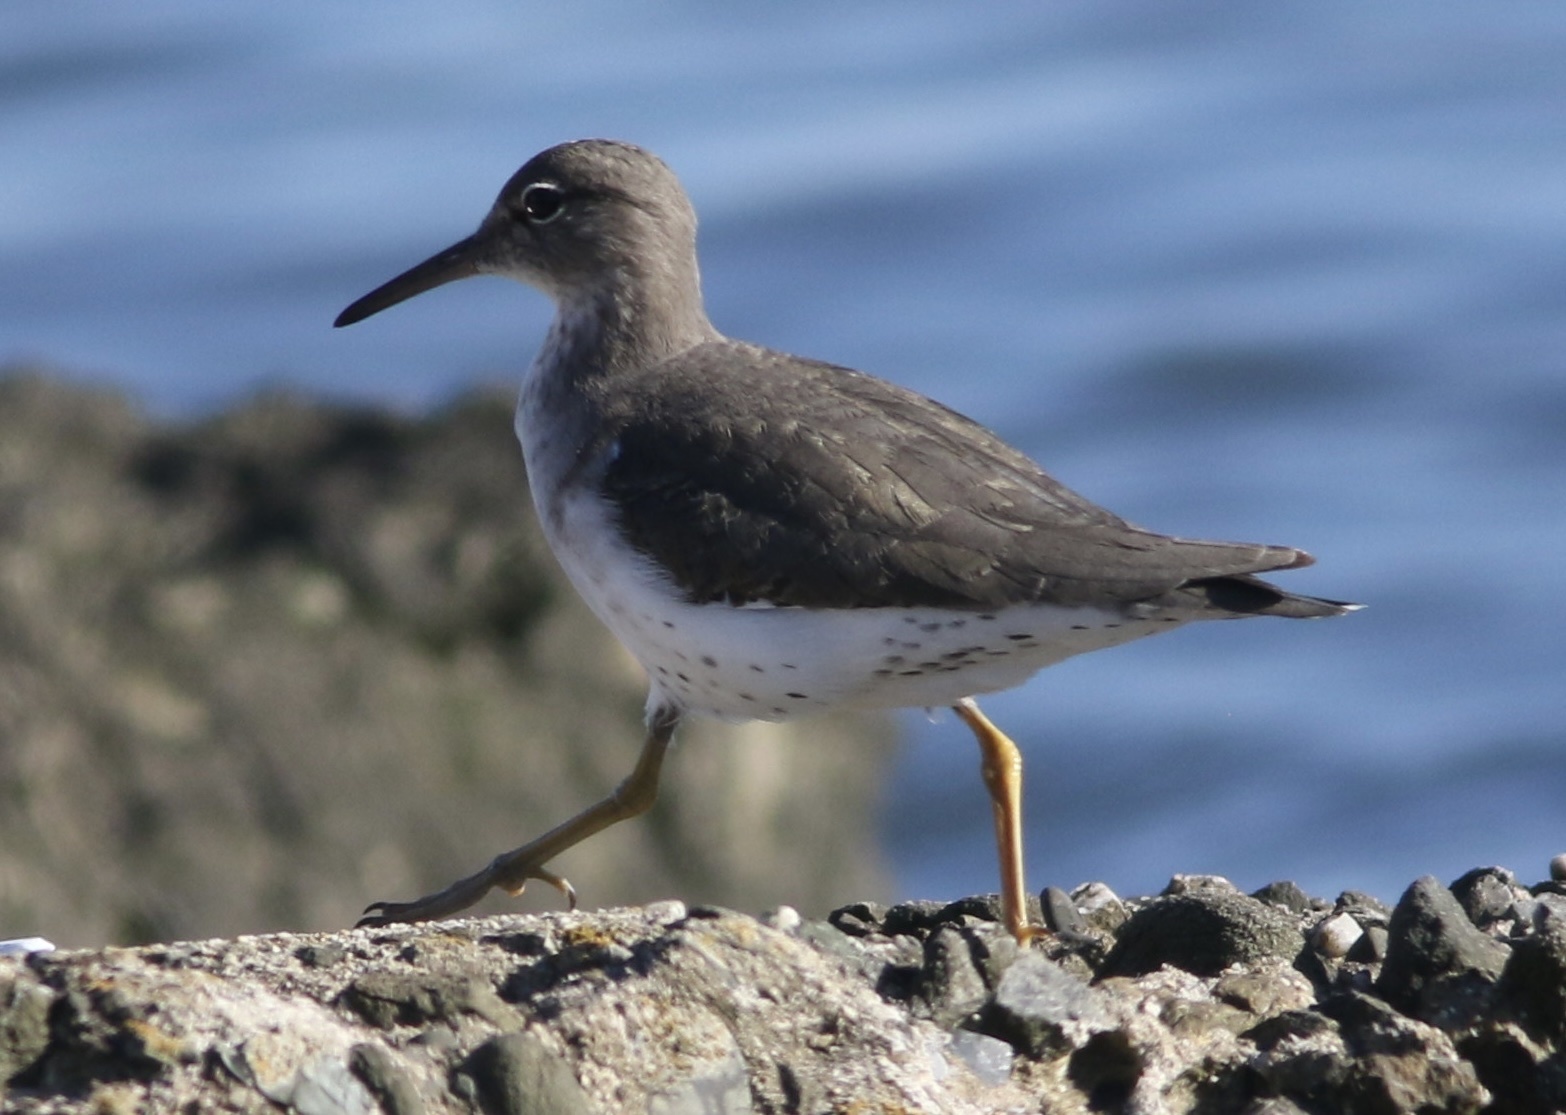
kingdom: Animalia
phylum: Chordata
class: Aves
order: Charadriiformes
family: Scolopacidae
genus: Actitis
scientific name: Actitis macularius
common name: Spotted sandpiper
